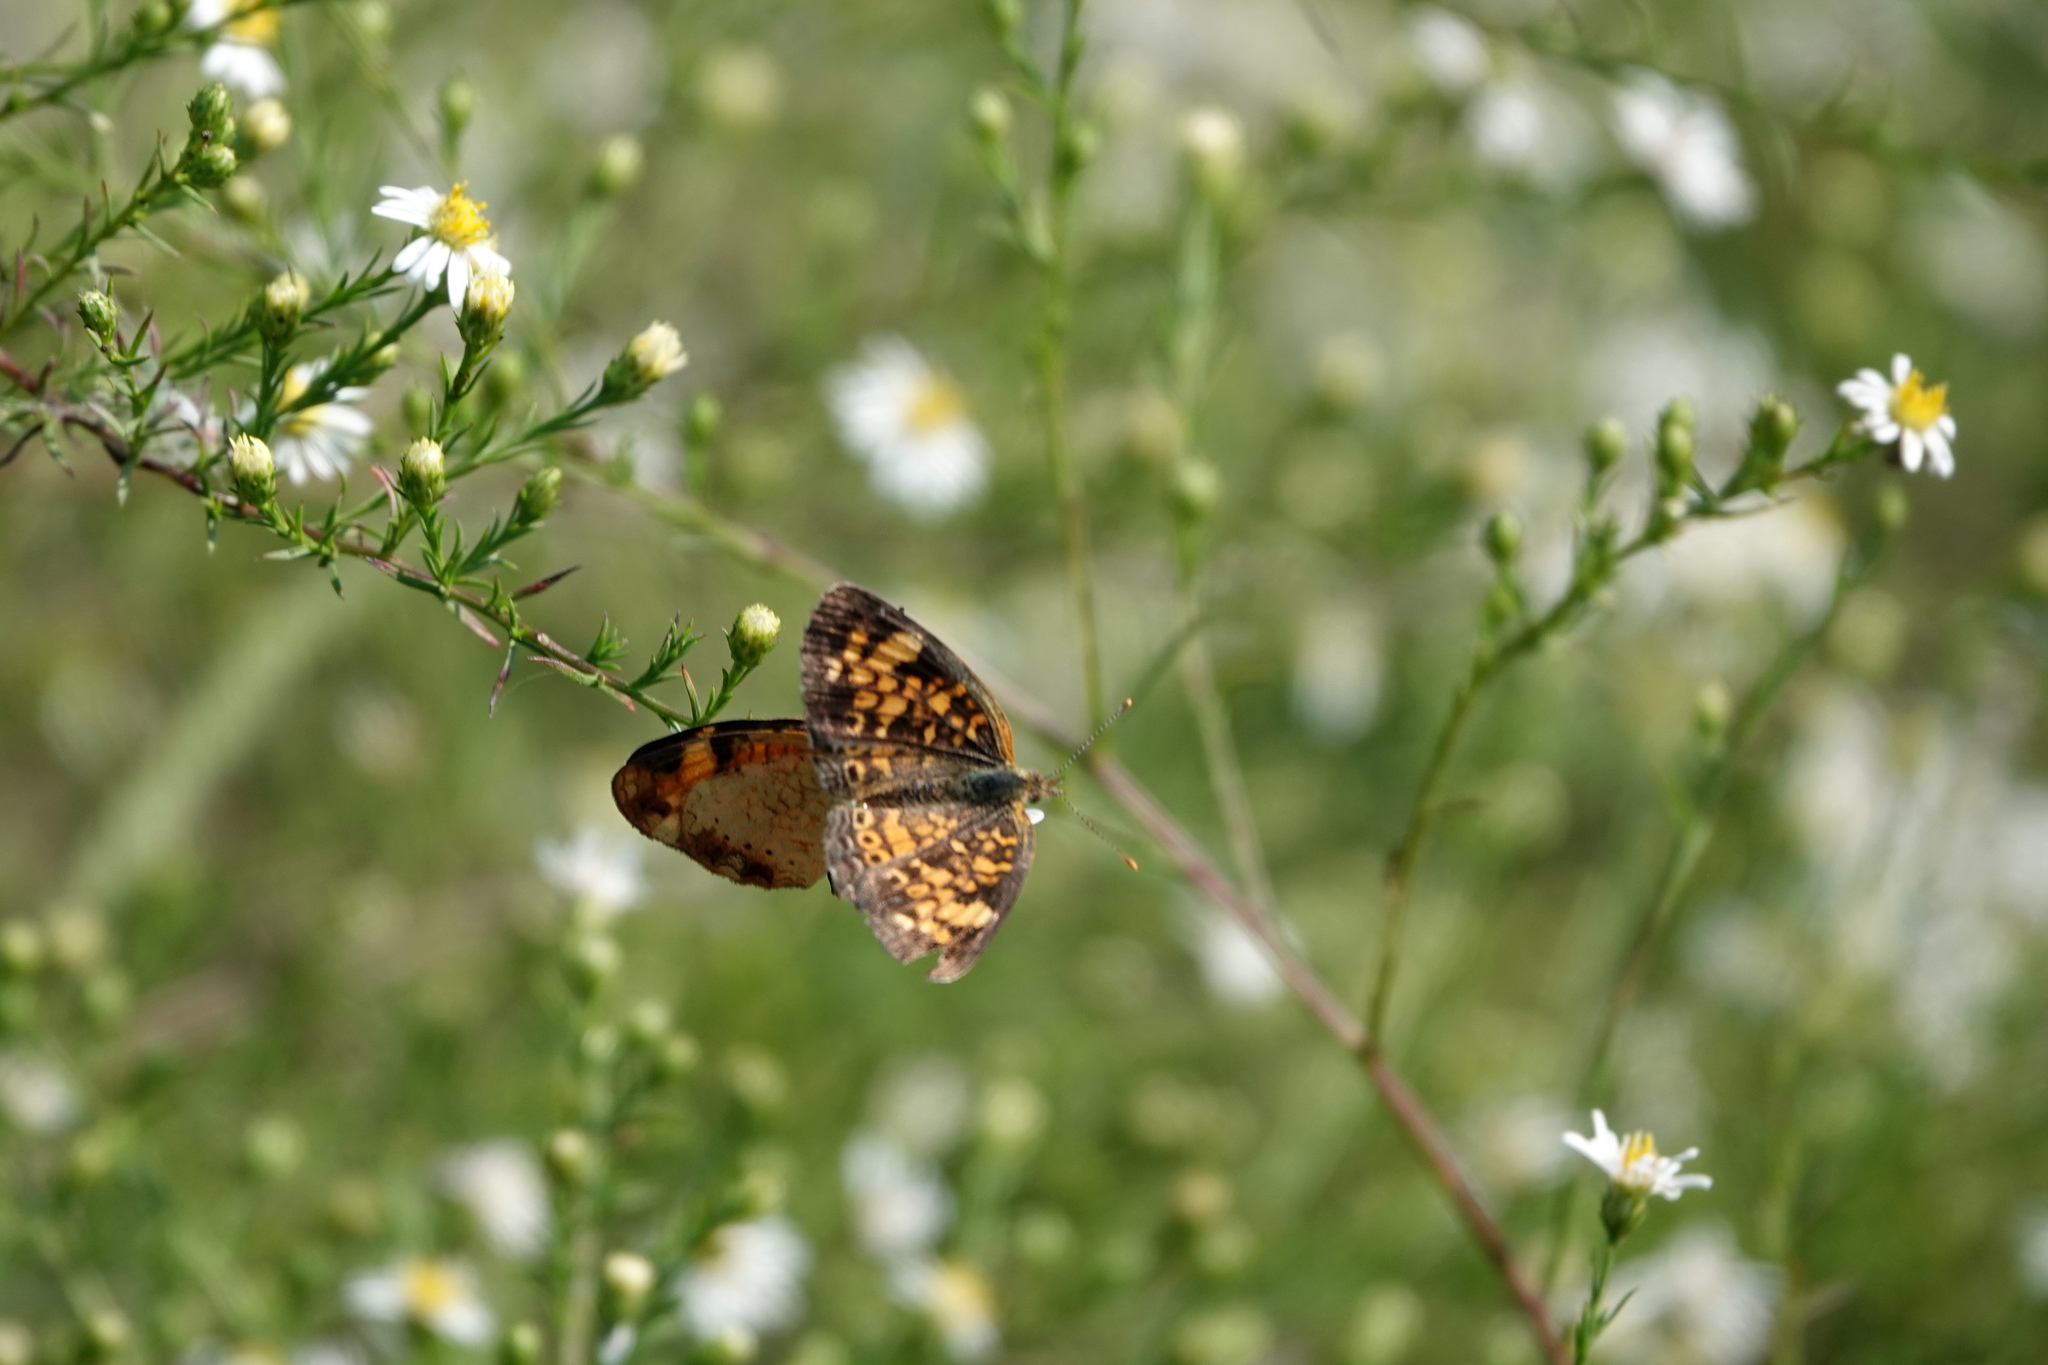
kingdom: Animalia
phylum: Arthropoda
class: Insecta
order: Lepidoptera
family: Nymphalidae
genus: Phyciodes
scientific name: Phyciodes tharos
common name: Pearl crescent
